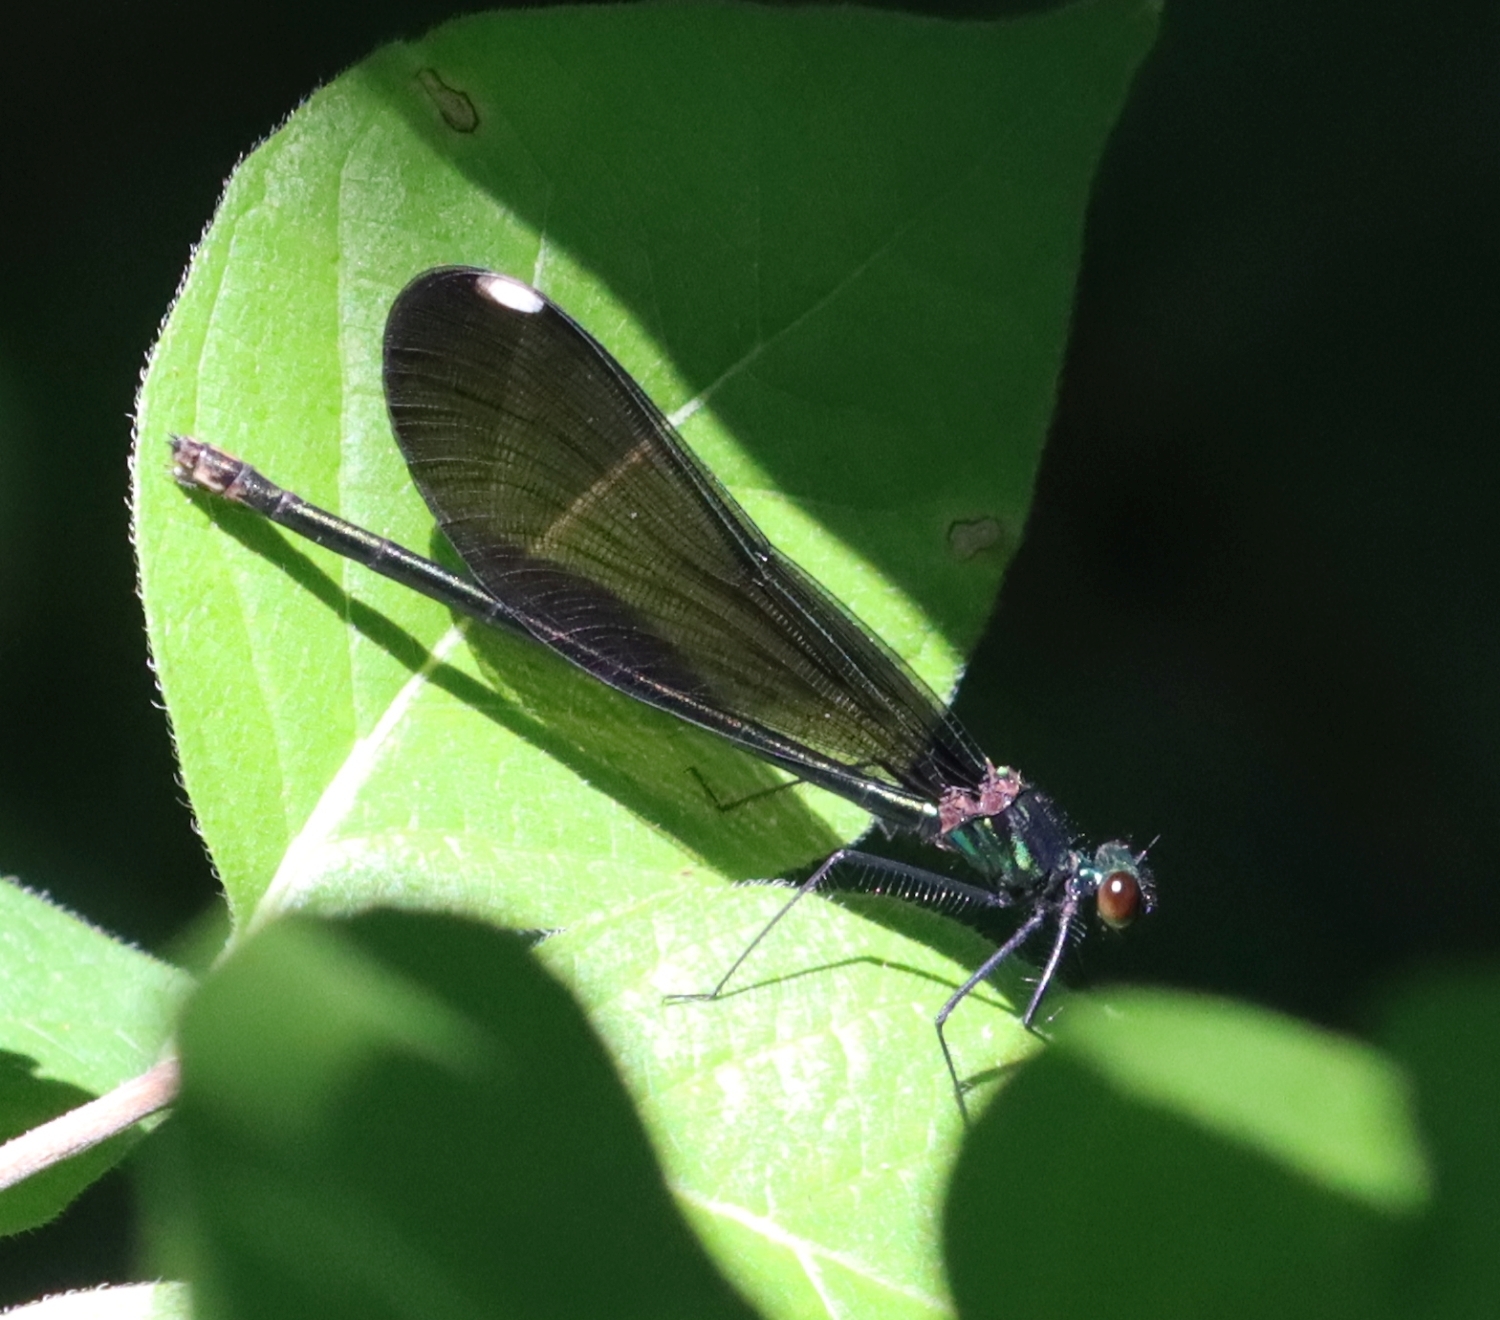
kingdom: Animalia
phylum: Arthropoda
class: Insecta
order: Odonata
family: Calopterygidae
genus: Calopteryx
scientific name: Calopteryx maculata
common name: Ebony jewelwing
